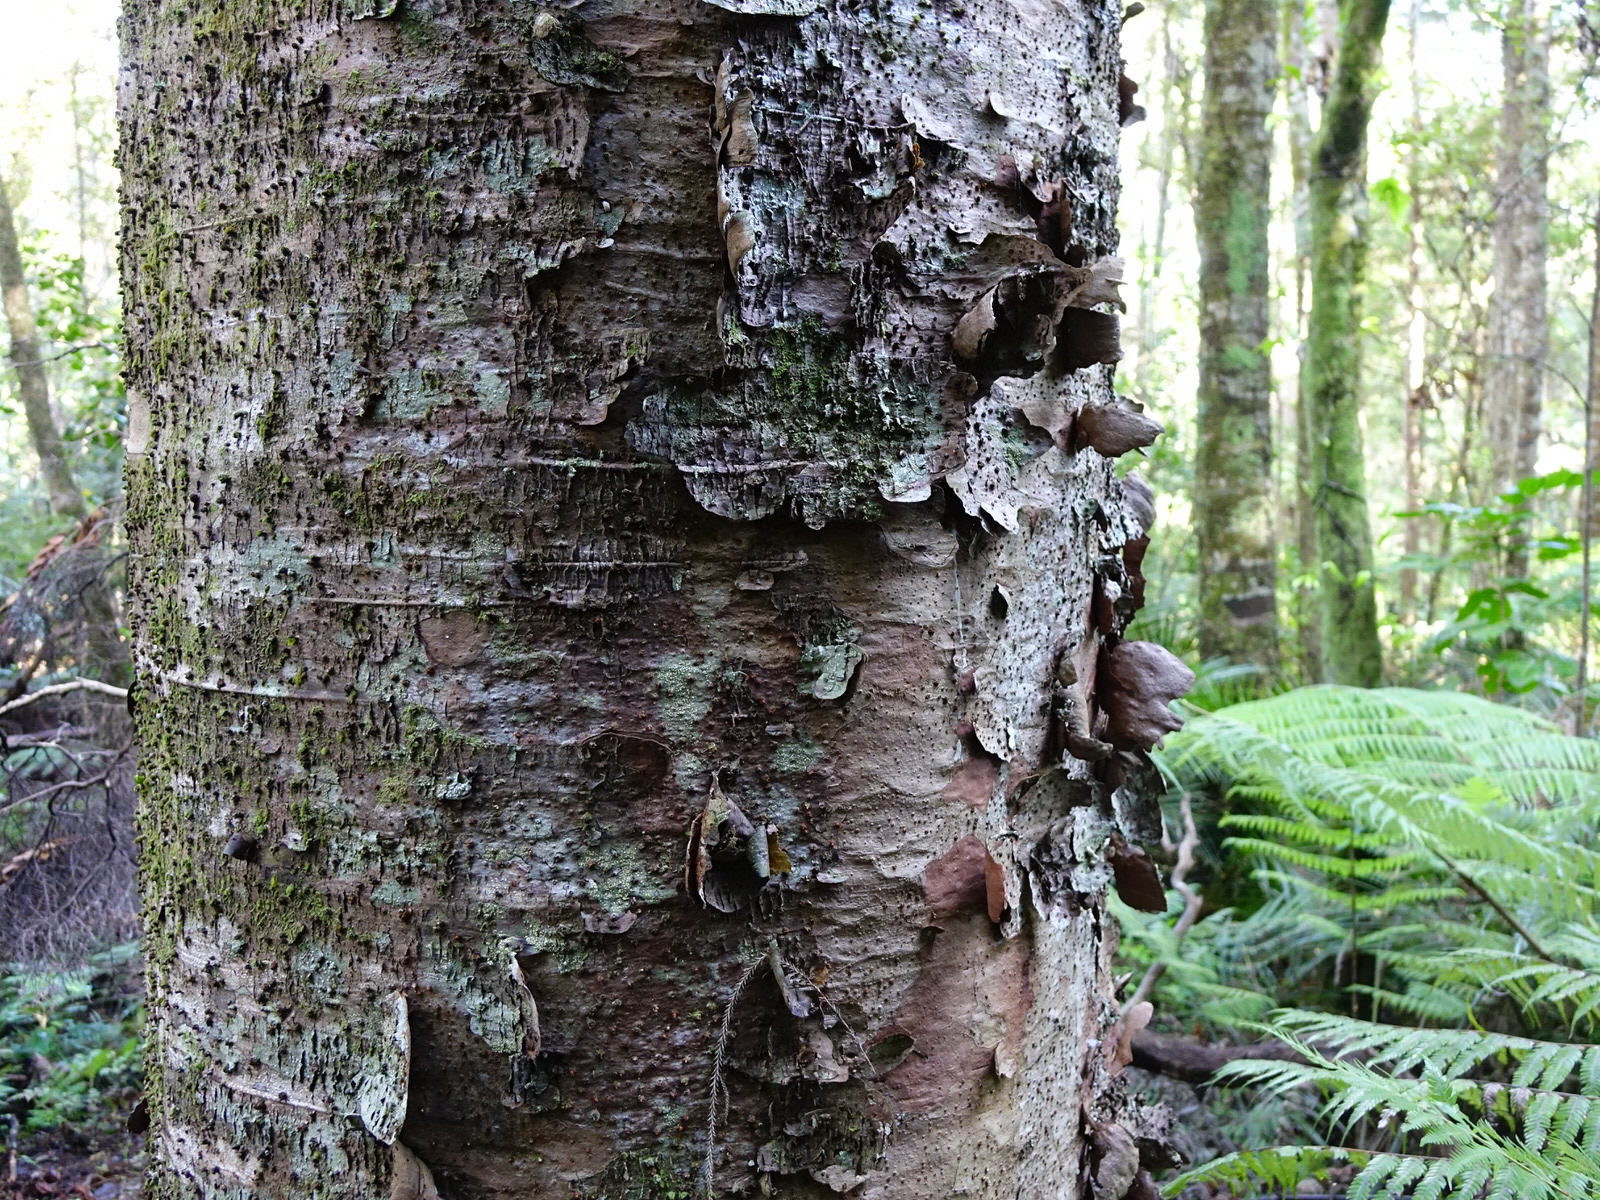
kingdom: Plantae
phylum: Tracheophyta
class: Pinopsida
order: Pinales
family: Araucariaceae
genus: Agathis
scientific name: Agathis australis
